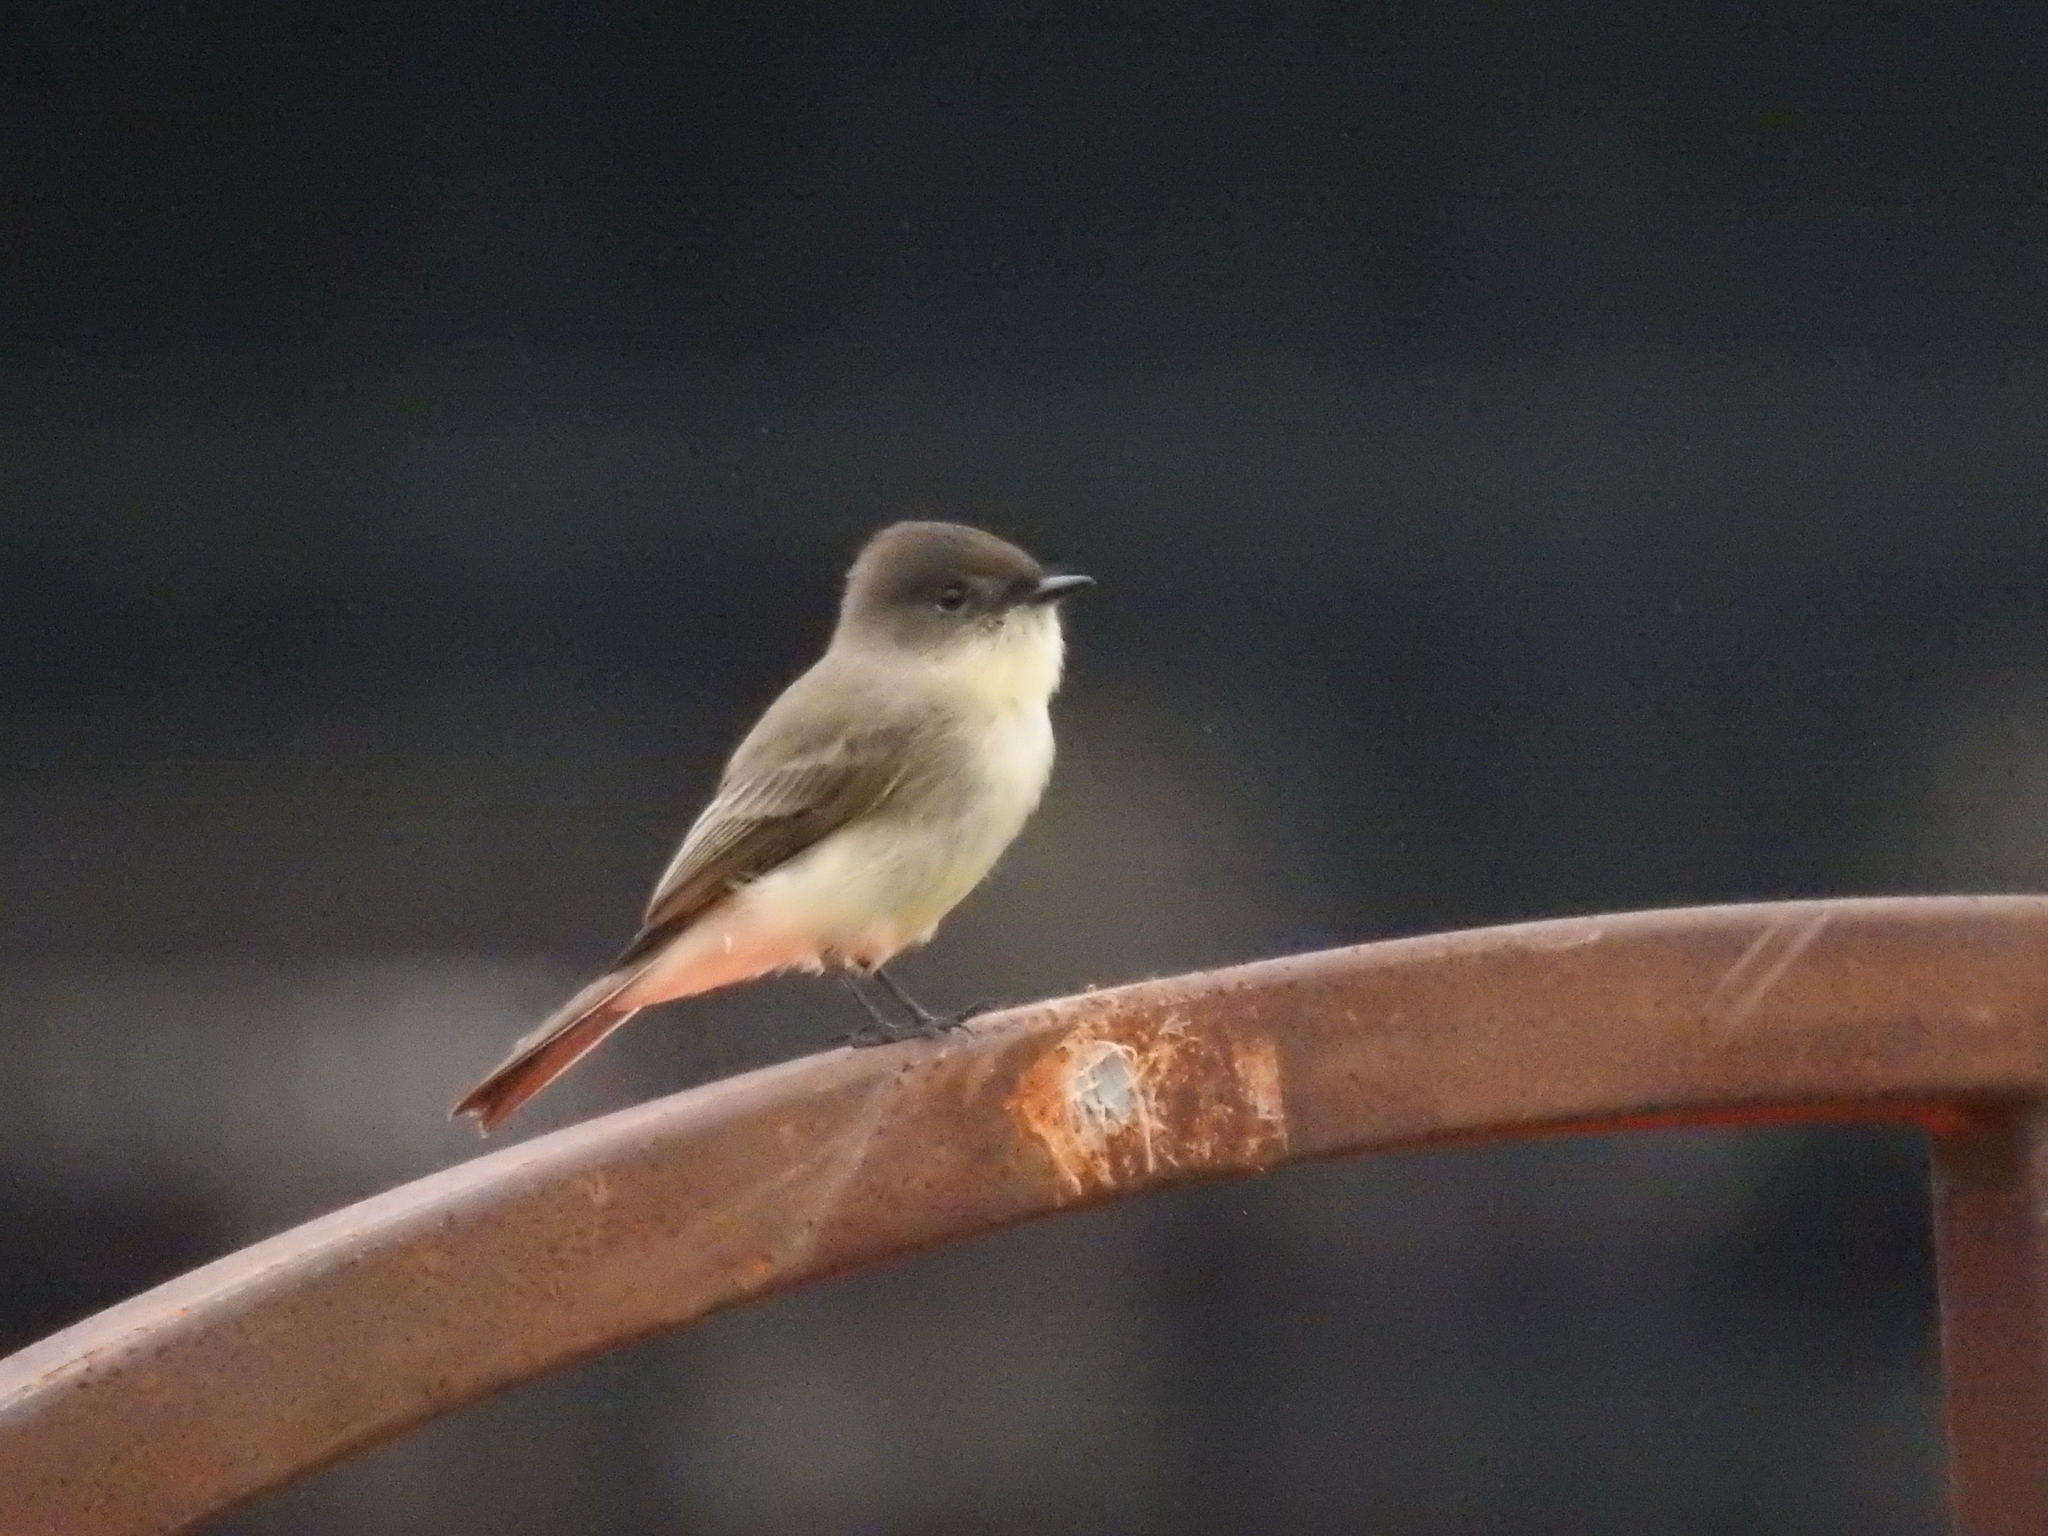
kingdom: Animalia
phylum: Chordata
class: Aves
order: Passeriformes
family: Tyrannidae
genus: Sayornis
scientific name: Sayornis phoebe
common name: Eastern phoebe
